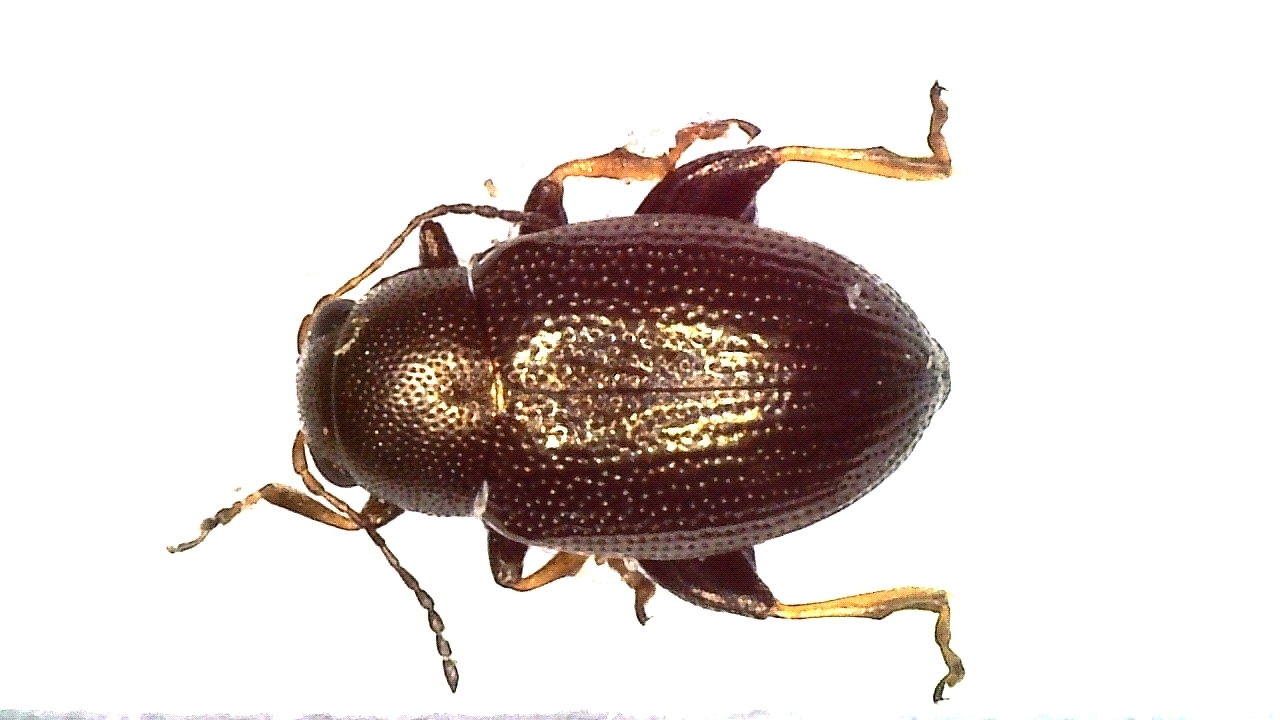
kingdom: Animalia
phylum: Arthropoda
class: Insecta
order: Coleoptera
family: Chrysomelidae
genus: Chaetocnema
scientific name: Chaetocnema hortensis
